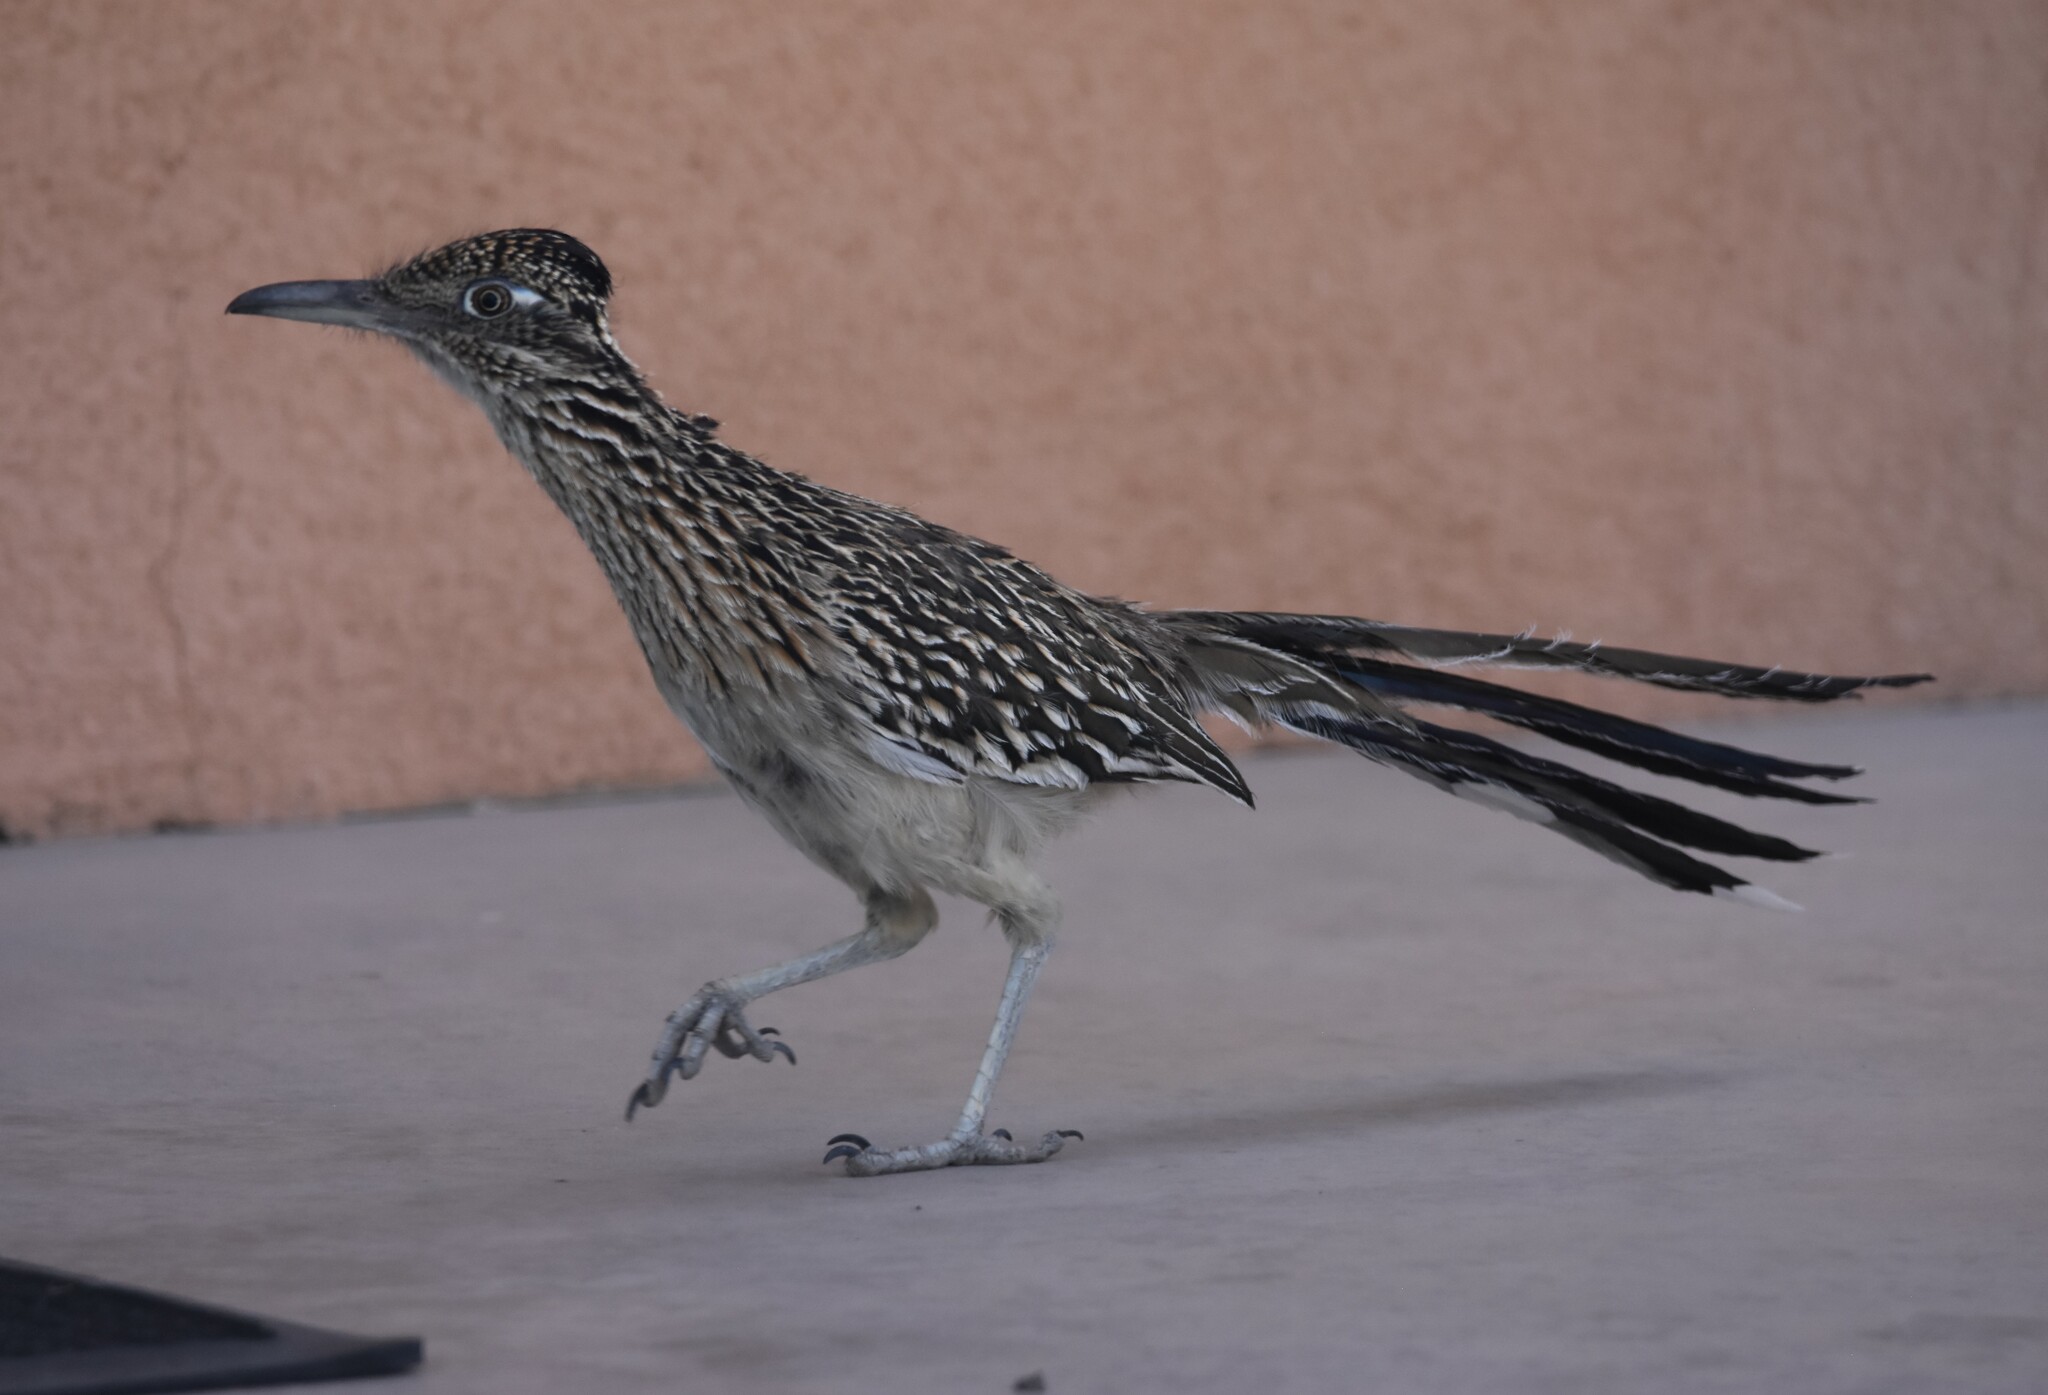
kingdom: Animalia
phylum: Chordata
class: Aves
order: Cuculiformes
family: Cuculidae
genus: Geococcyx
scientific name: Geococcyx californianus
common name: Greater roadrunner
